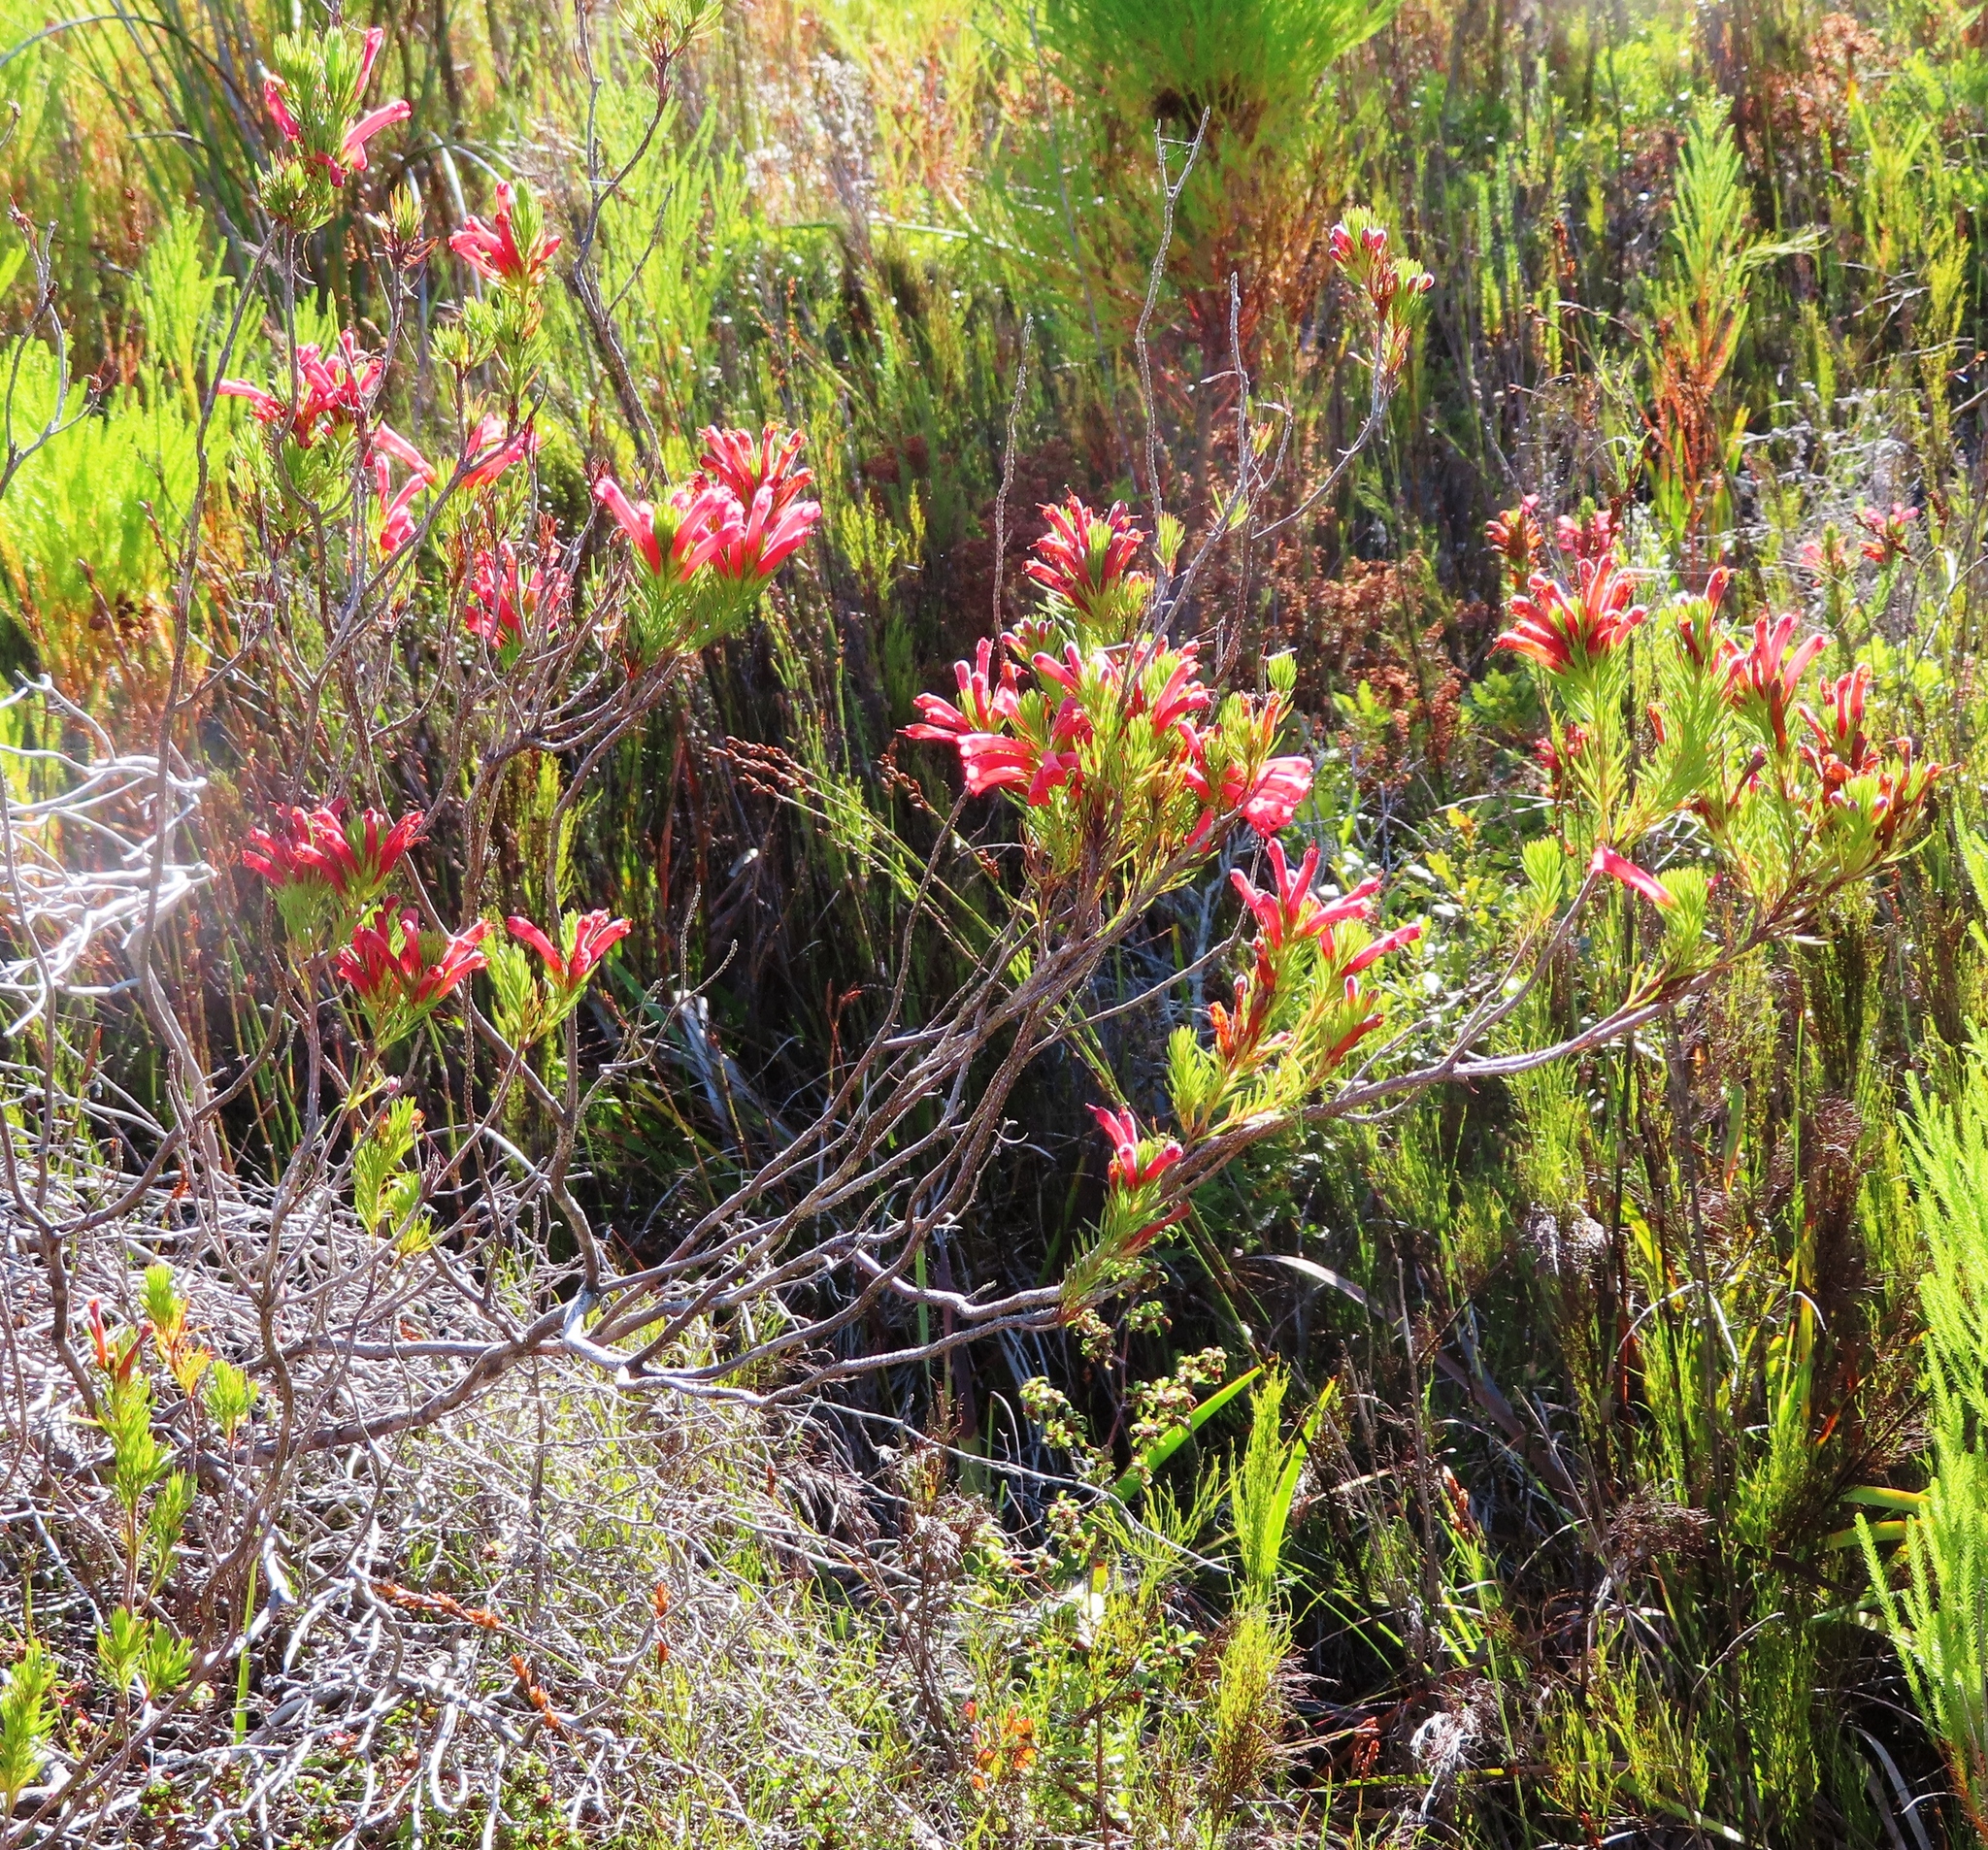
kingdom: Plantae
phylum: Tracheophyta
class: Magnoliopsida
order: Ericales
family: Ericaceae
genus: Erica
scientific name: Erica vestita
